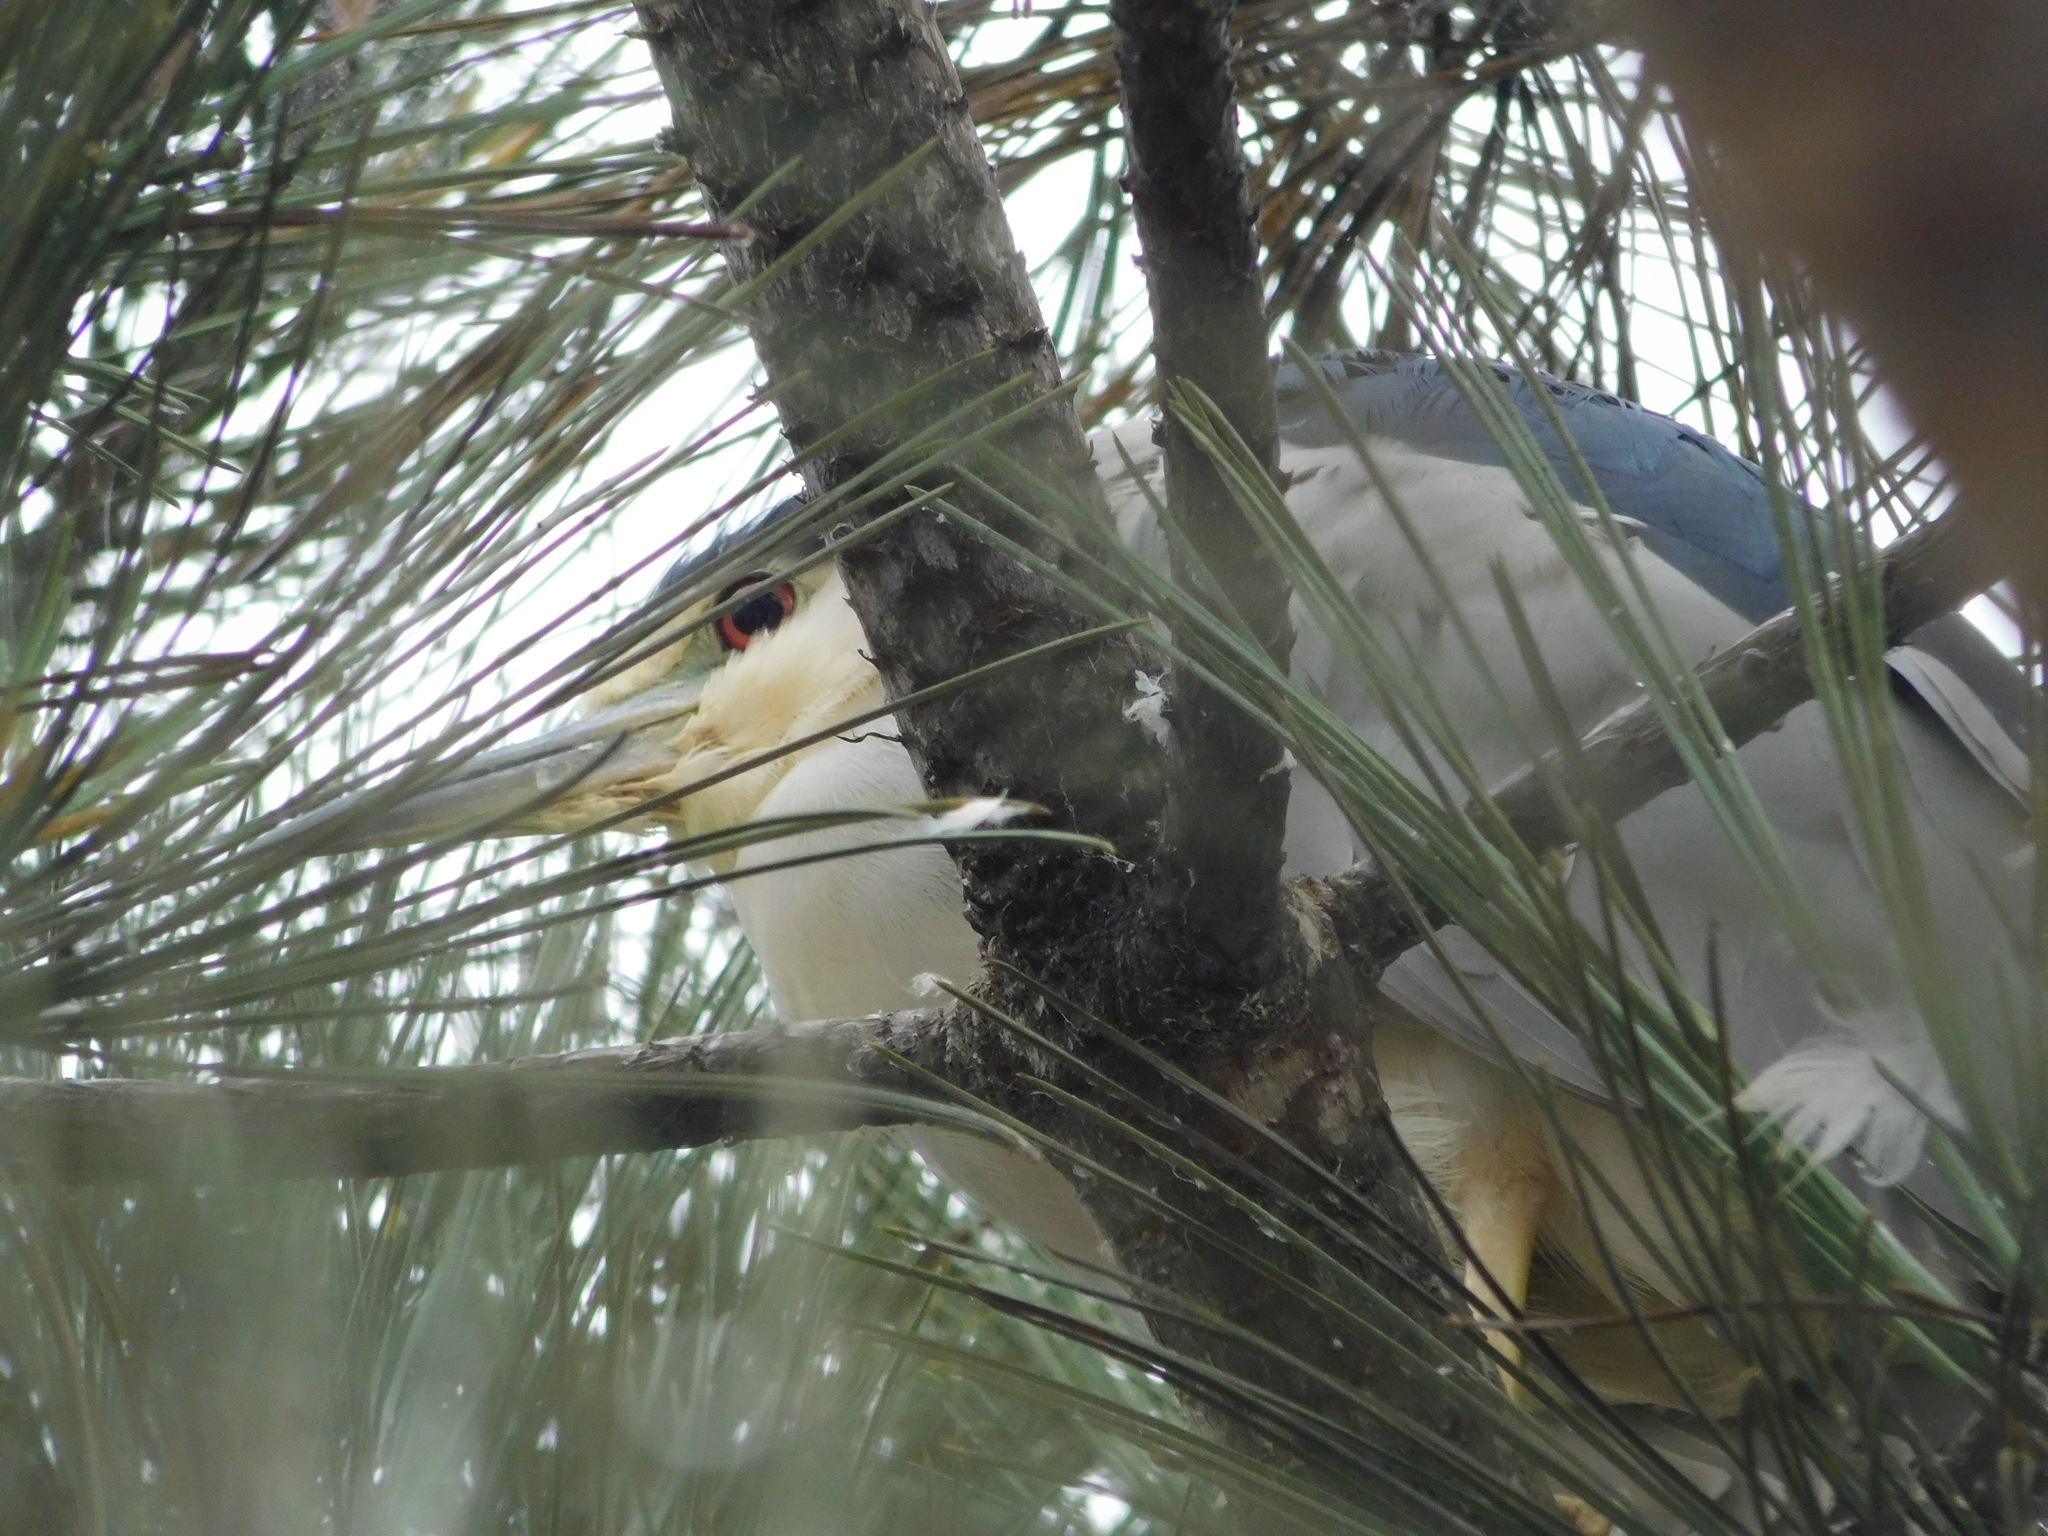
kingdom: Animalia
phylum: Chordata
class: Aves
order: Pelecaniformes
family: Ardeidae
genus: Nycticorax
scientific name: Nycticorax nycticorax
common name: Black-crowned night heron
